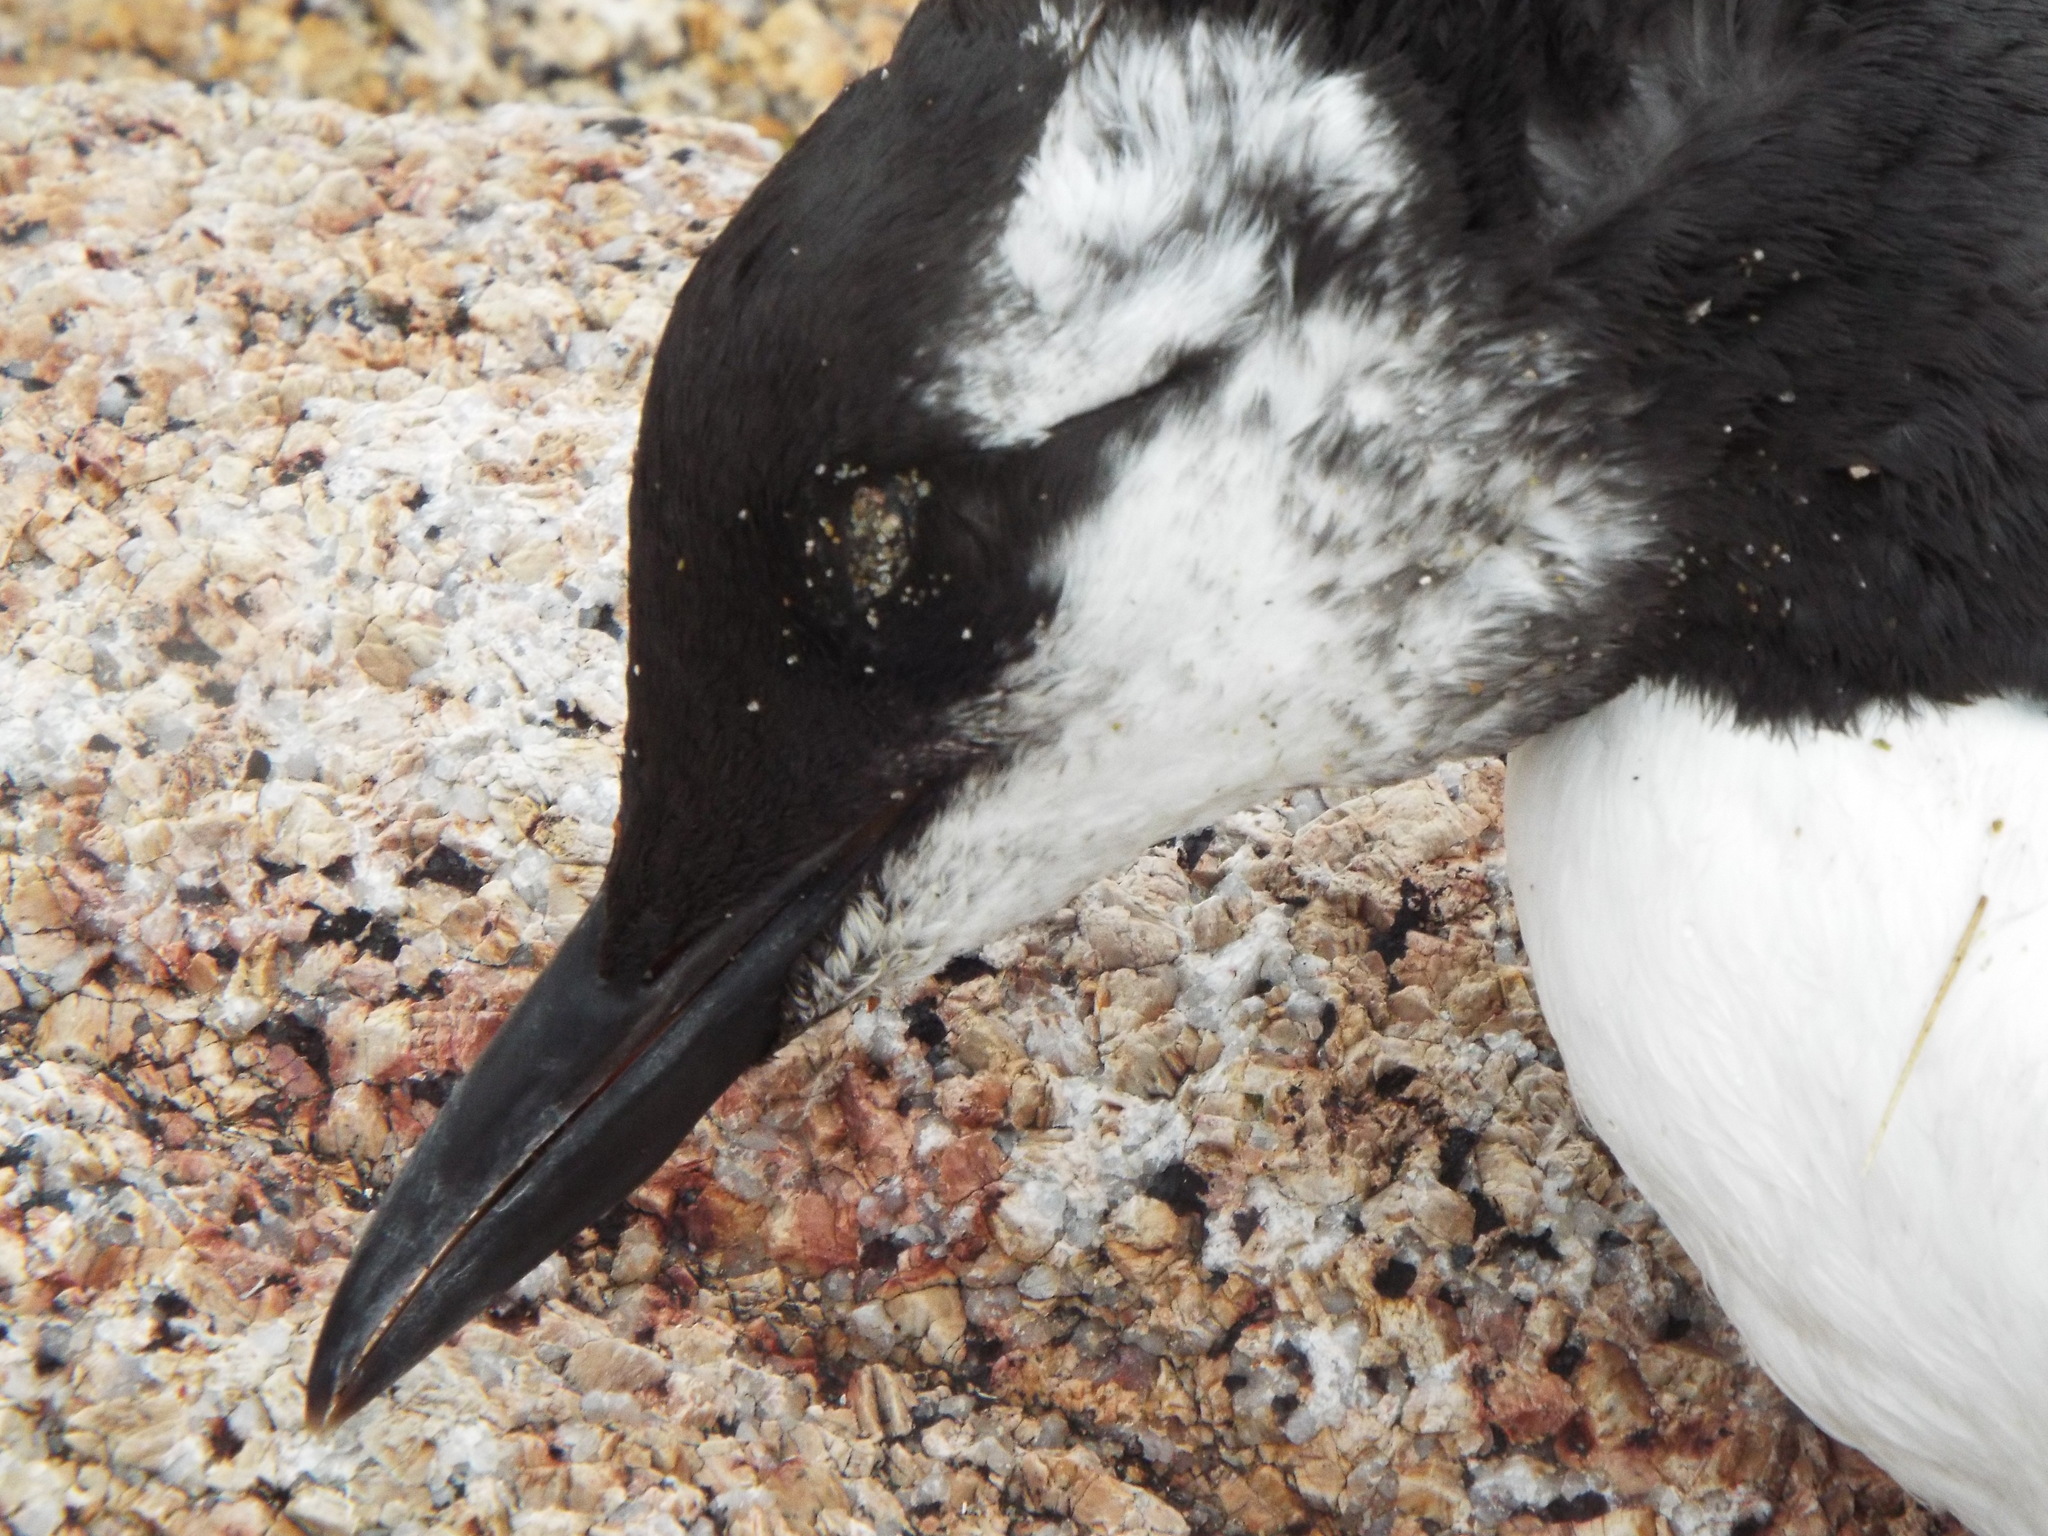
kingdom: Animalia
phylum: Chordata
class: Aves
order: Charadriiformes
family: Alcidae
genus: Uria
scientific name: Uria aalge
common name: Common murre
